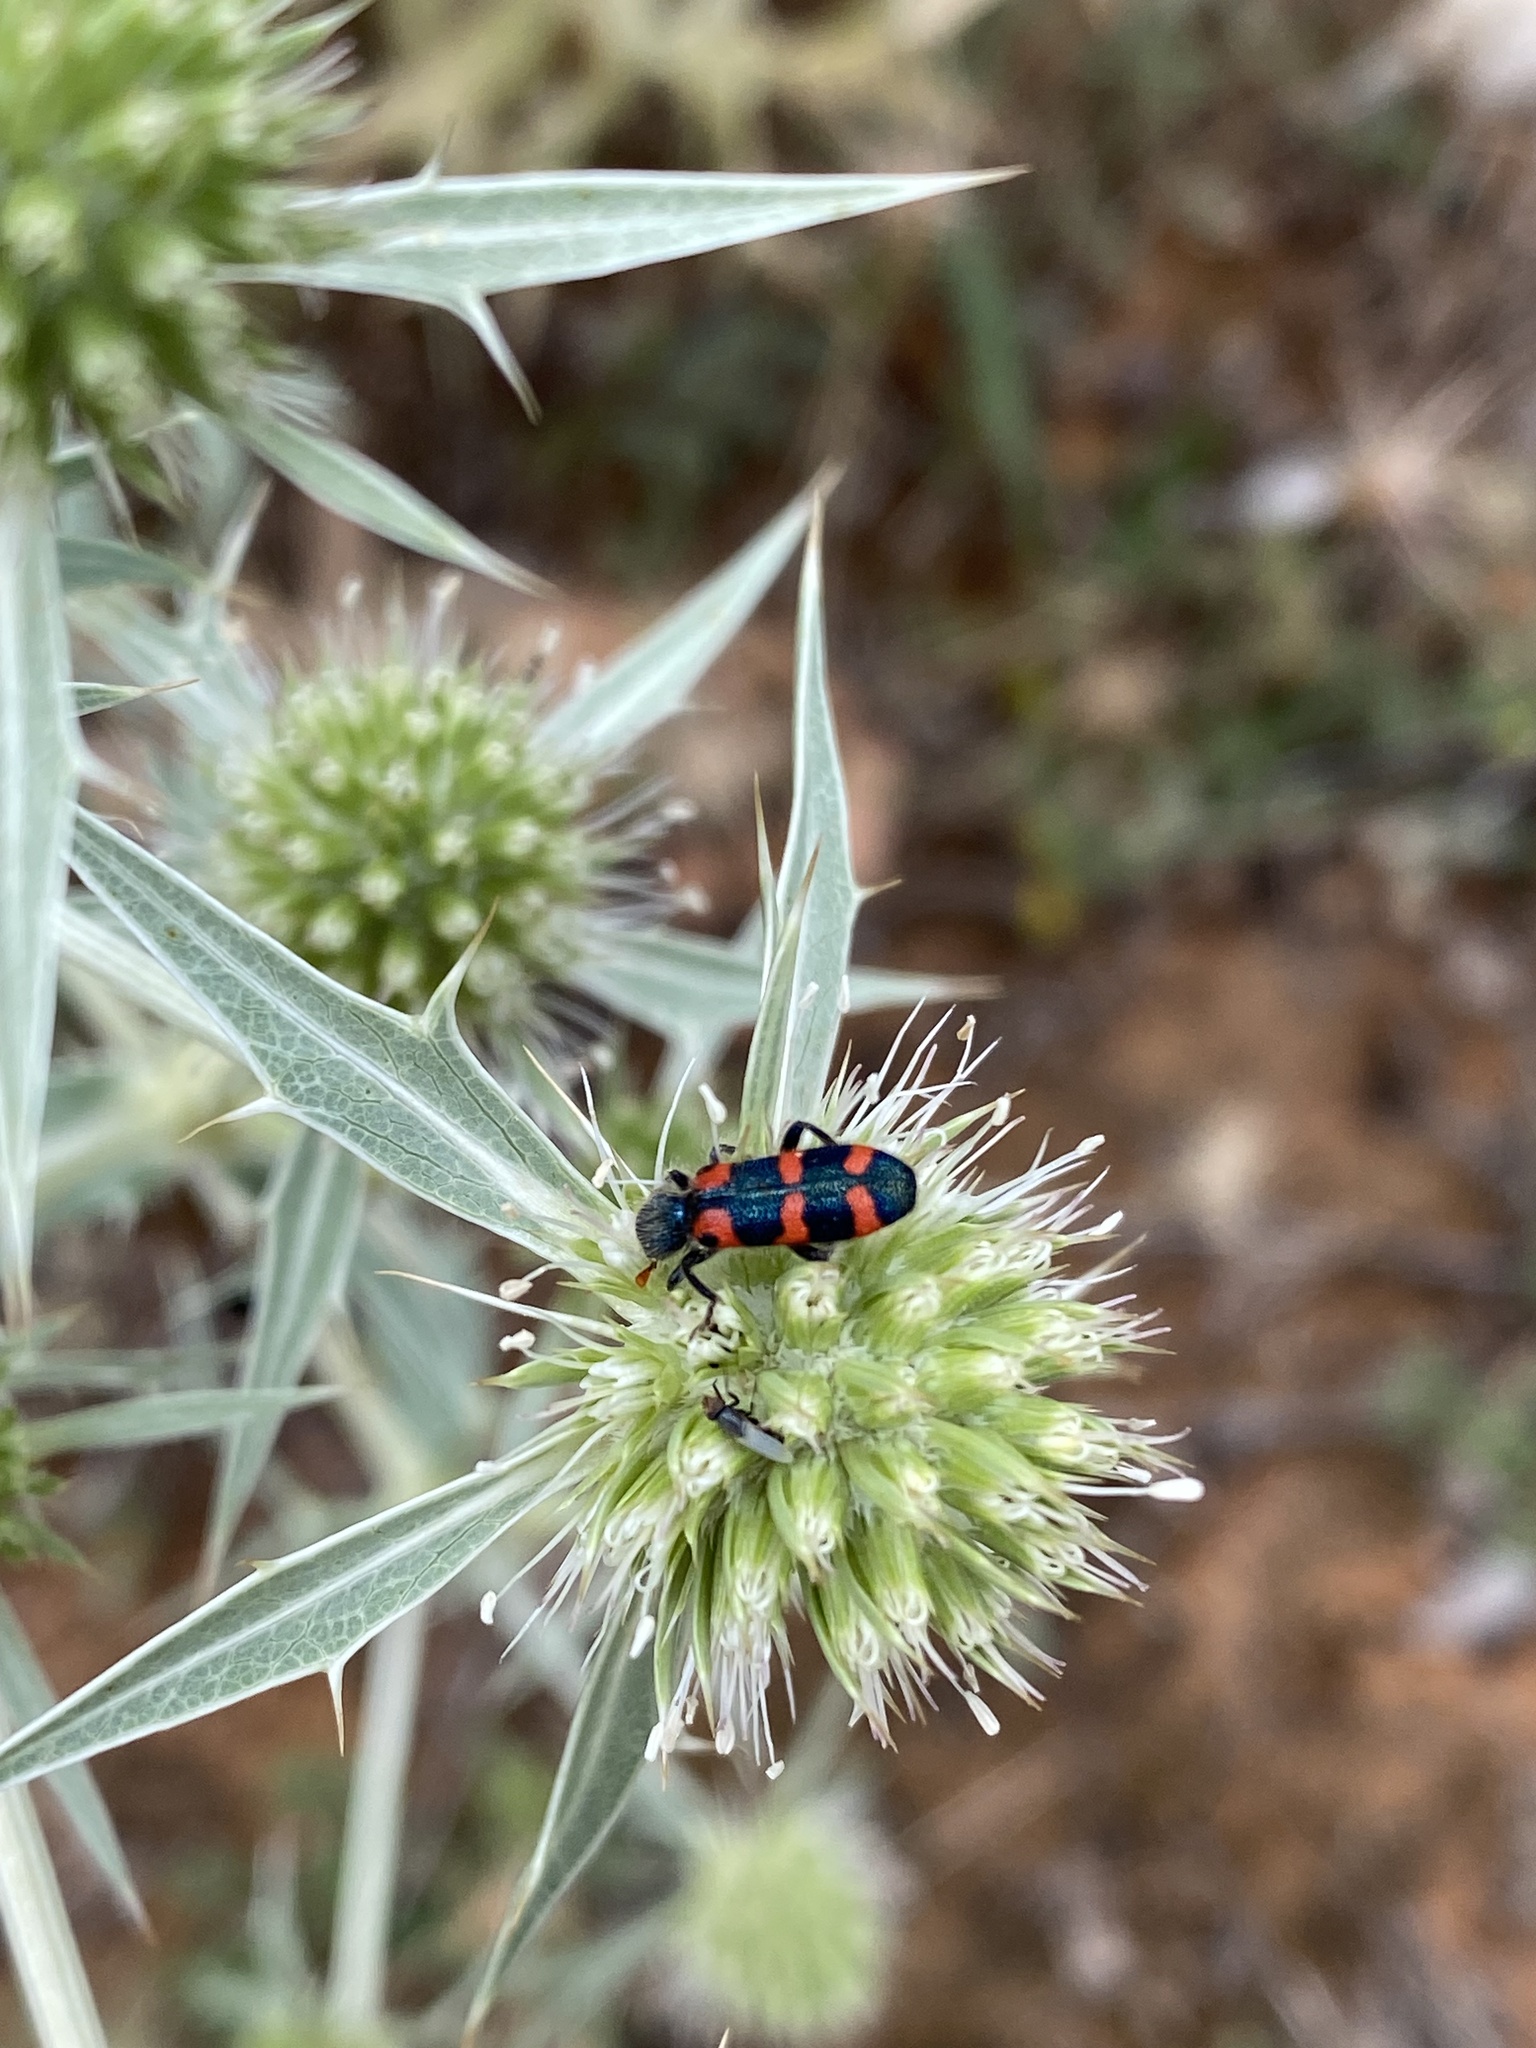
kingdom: Animalia
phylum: Arthropoda
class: Insecta
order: Coleoptera
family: Cleridae
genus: Trichodes
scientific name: Trichodes leucopsideus
